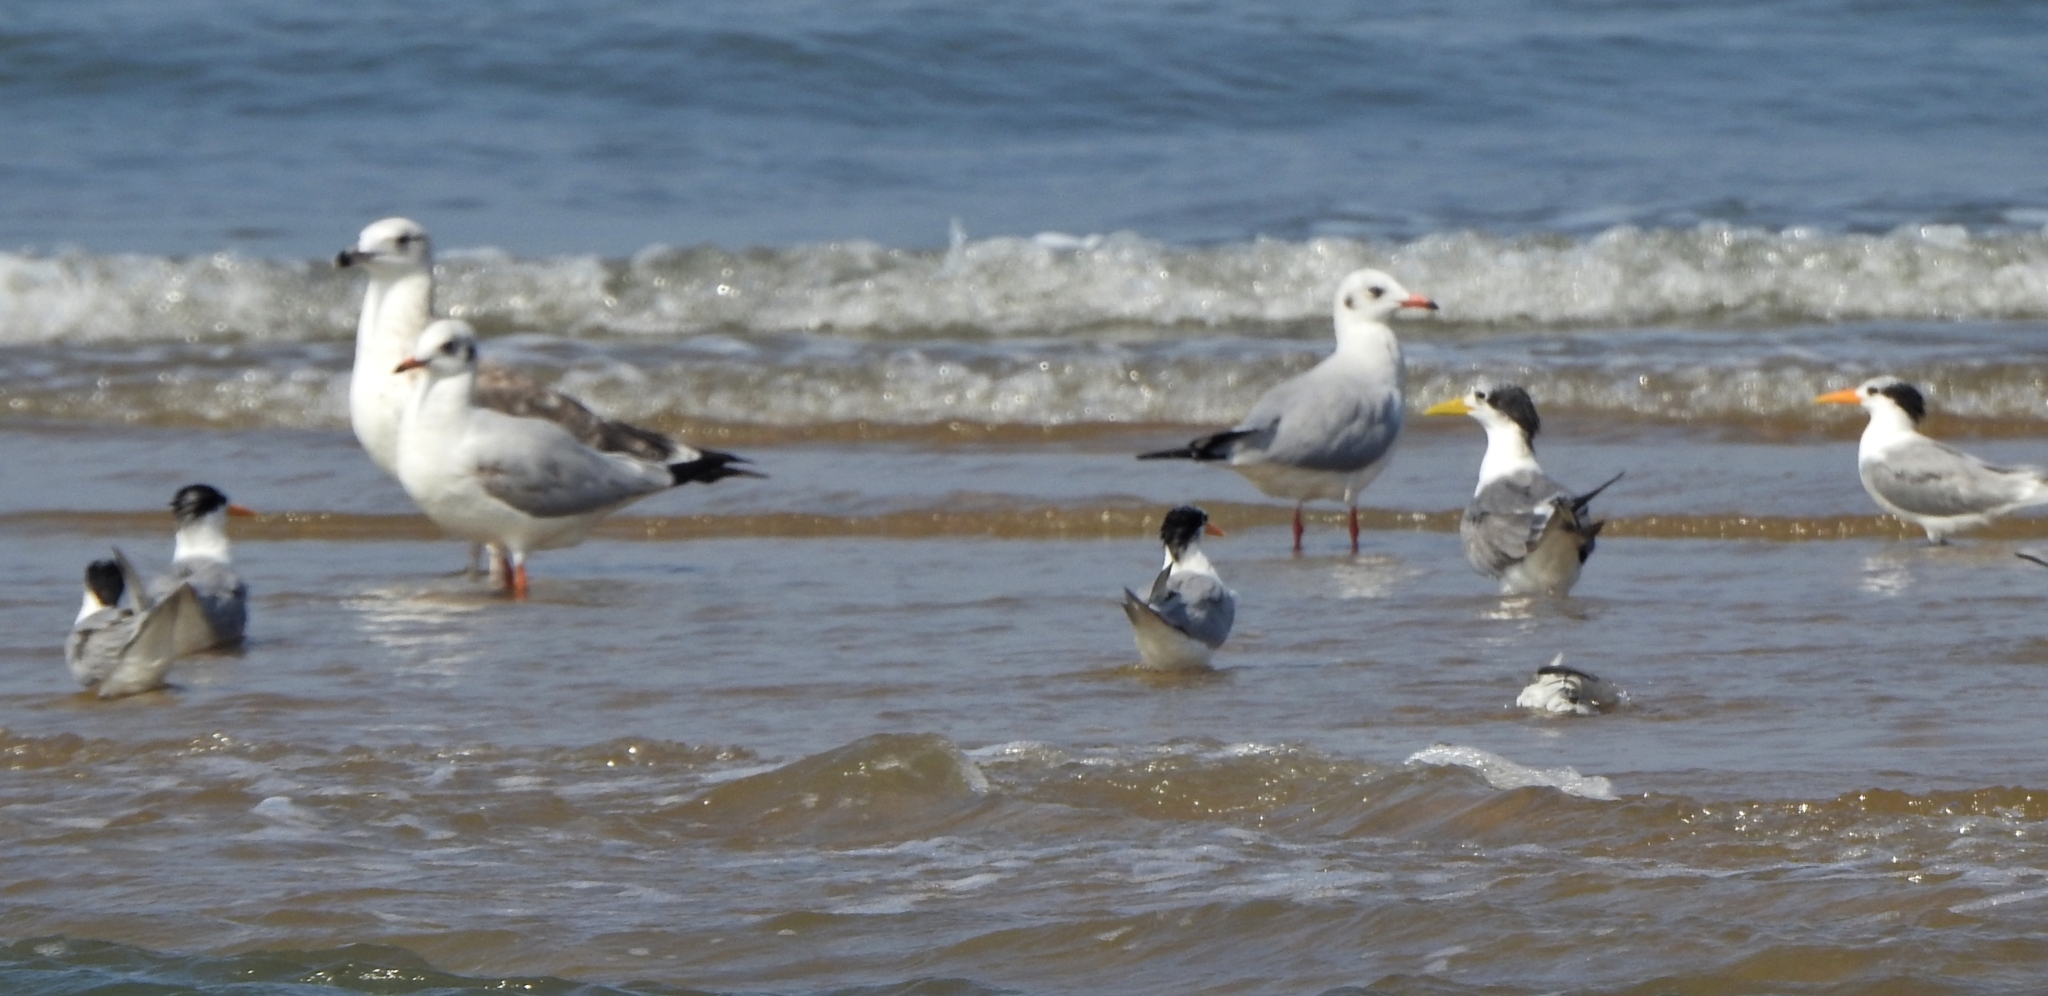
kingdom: Animalia
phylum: Chordata
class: Aves
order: Charadriiformes
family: Laridae
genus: Chroicocephalus
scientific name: Chroicocephalus brunnicephalus
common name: Brown-headed gull
